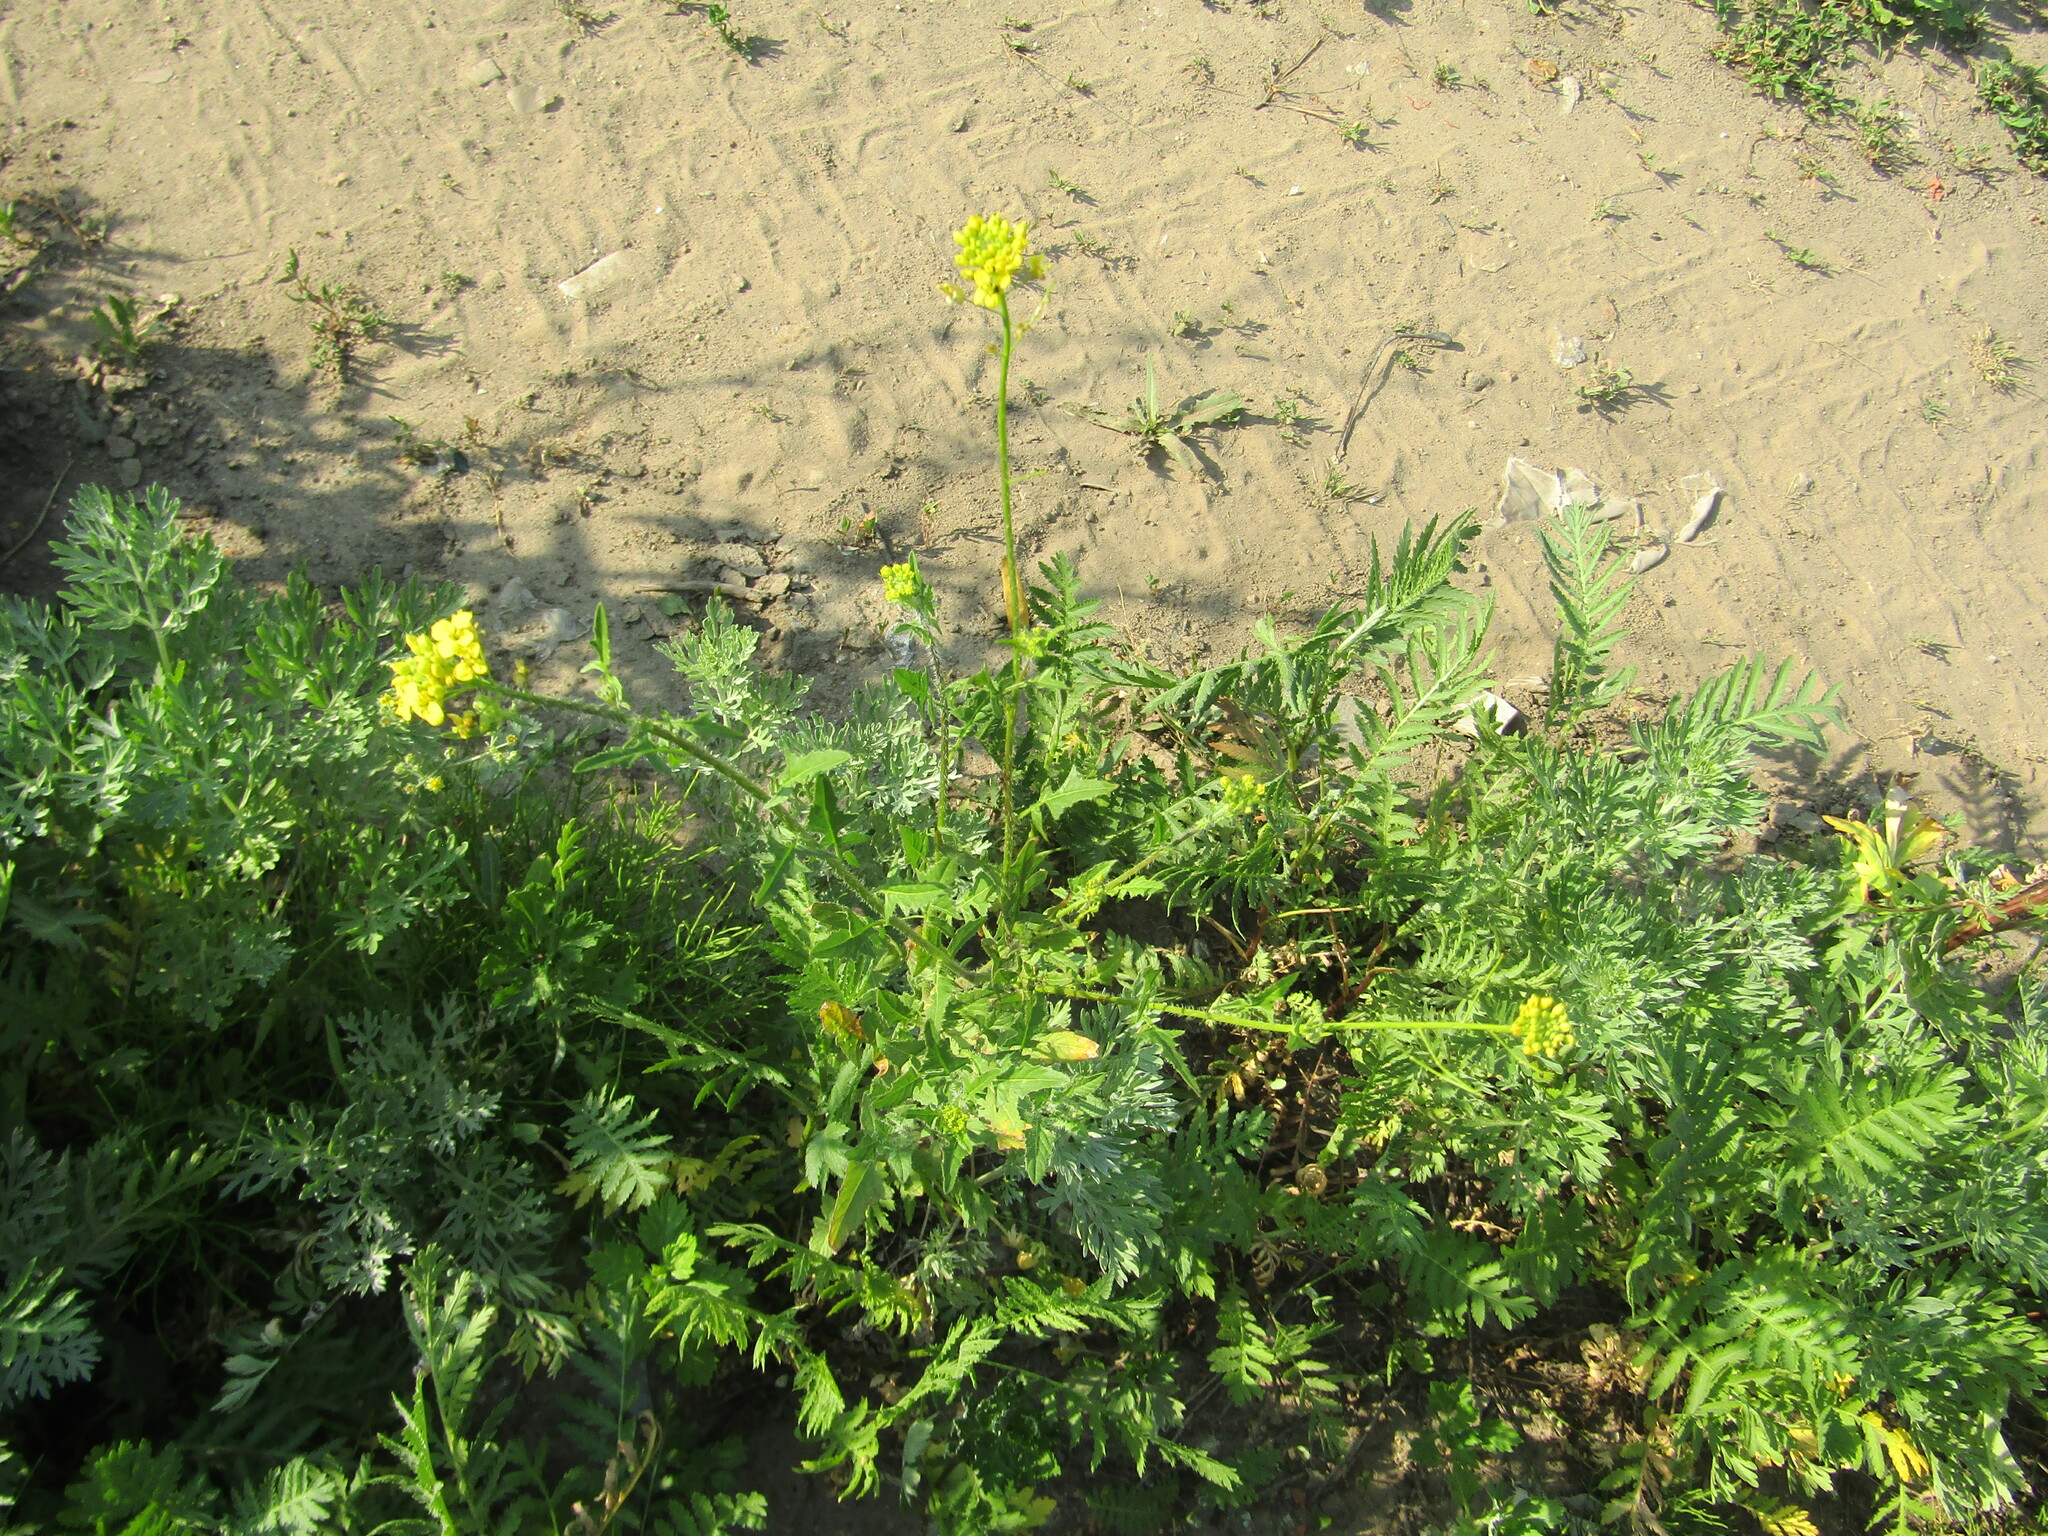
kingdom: Plantae
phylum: Tracheophyta
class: Magnoliopsida
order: Brassicales
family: Brassicaceae
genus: Sisymbrium
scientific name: Sisymbrium loeselii
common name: False london-rocket
